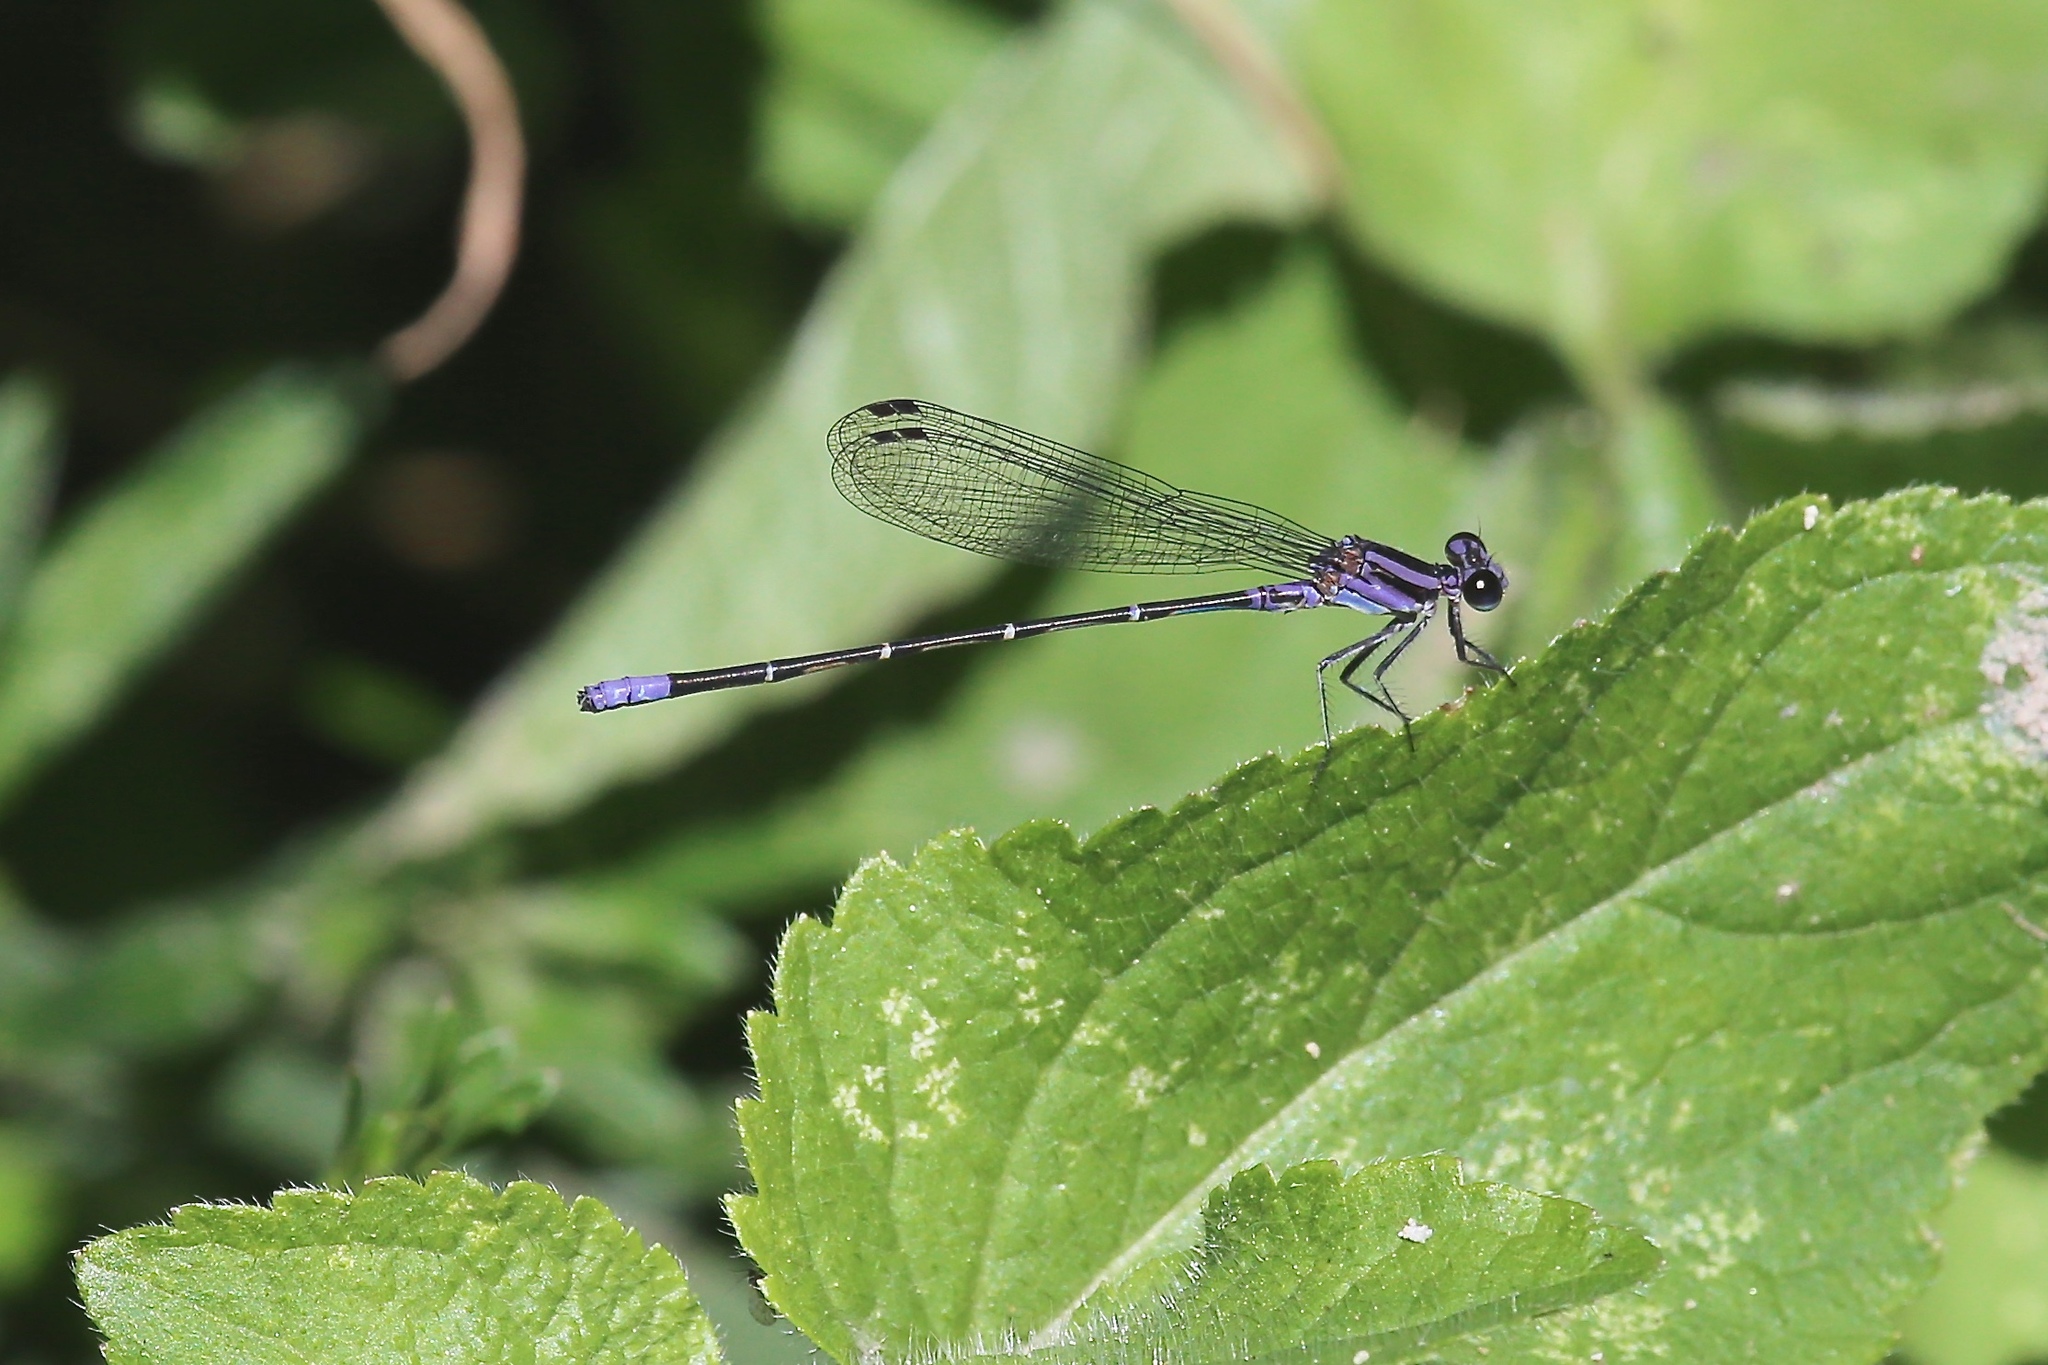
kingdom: Animalia
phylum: Arthropoda
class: Insecta
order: Odonata
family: Coenagrionidae
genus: Argia
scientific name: Argia pulla
